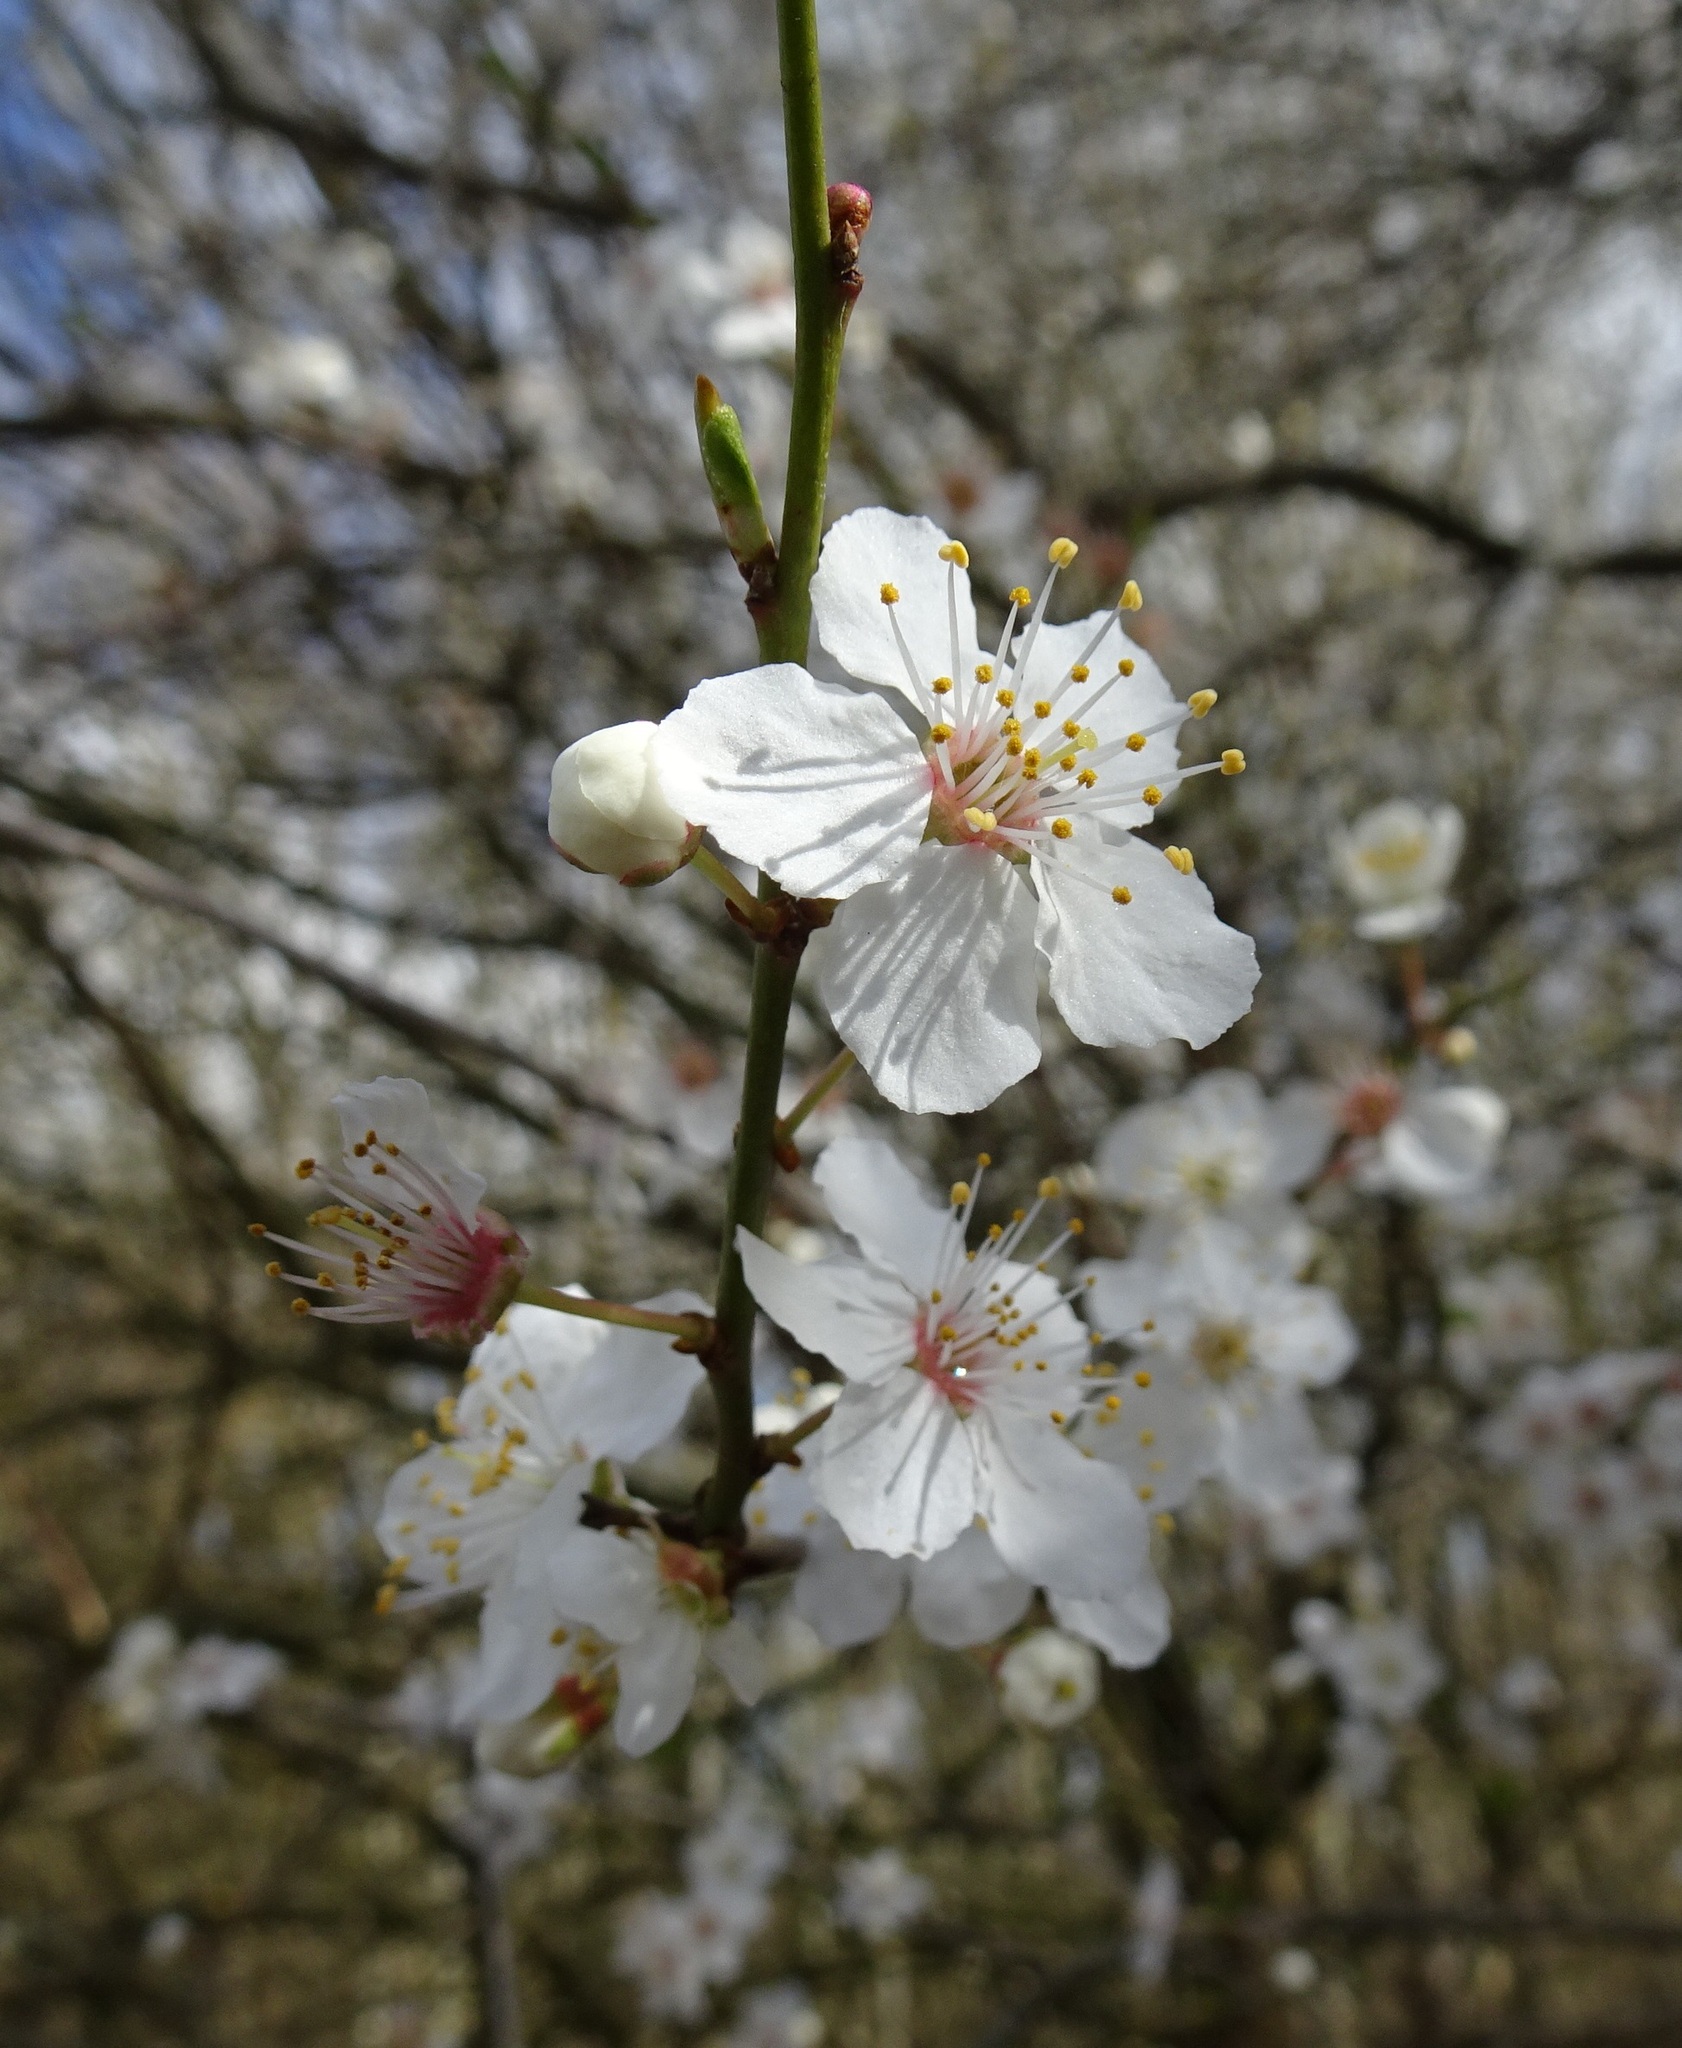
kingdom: Plantae
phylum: Tracheophyta
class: Magnoliopsida
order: Rosales
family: Rosaceae
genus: Prunus
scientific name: Prunus cerasifera
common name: Cherry plum
